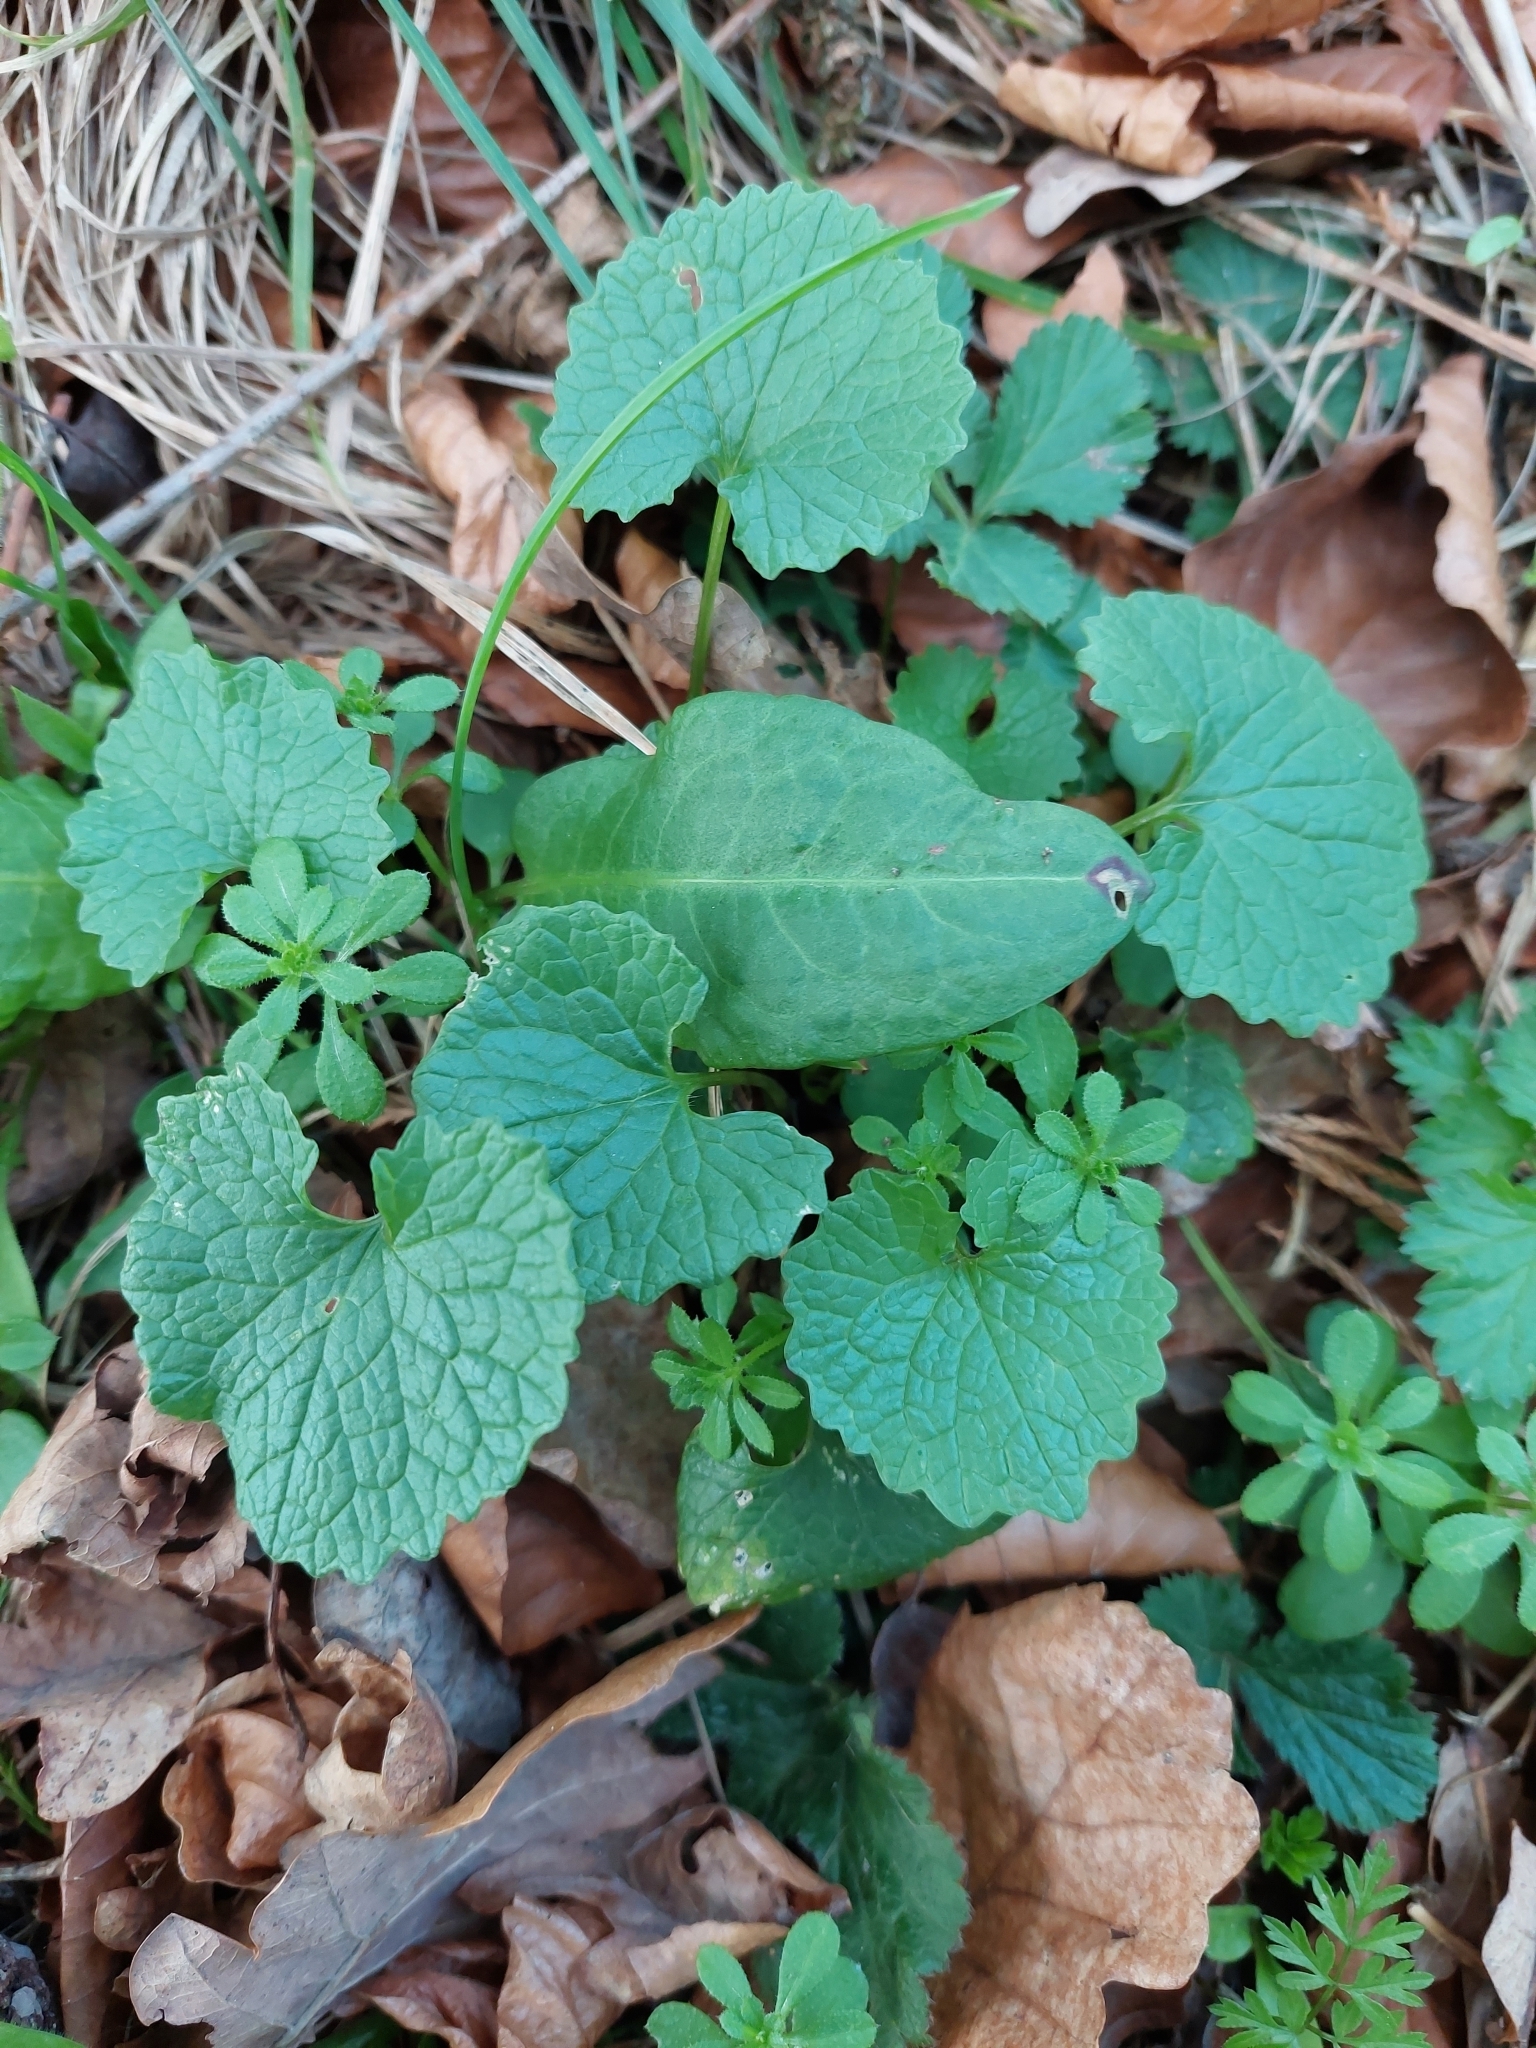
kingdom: Plantae
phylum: Tracheophyta
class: Magnoliopsida
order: Brassicales
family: Brassicaceae
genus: Alliaria
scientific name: Alliaria petiolata
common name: Garlic mustard
